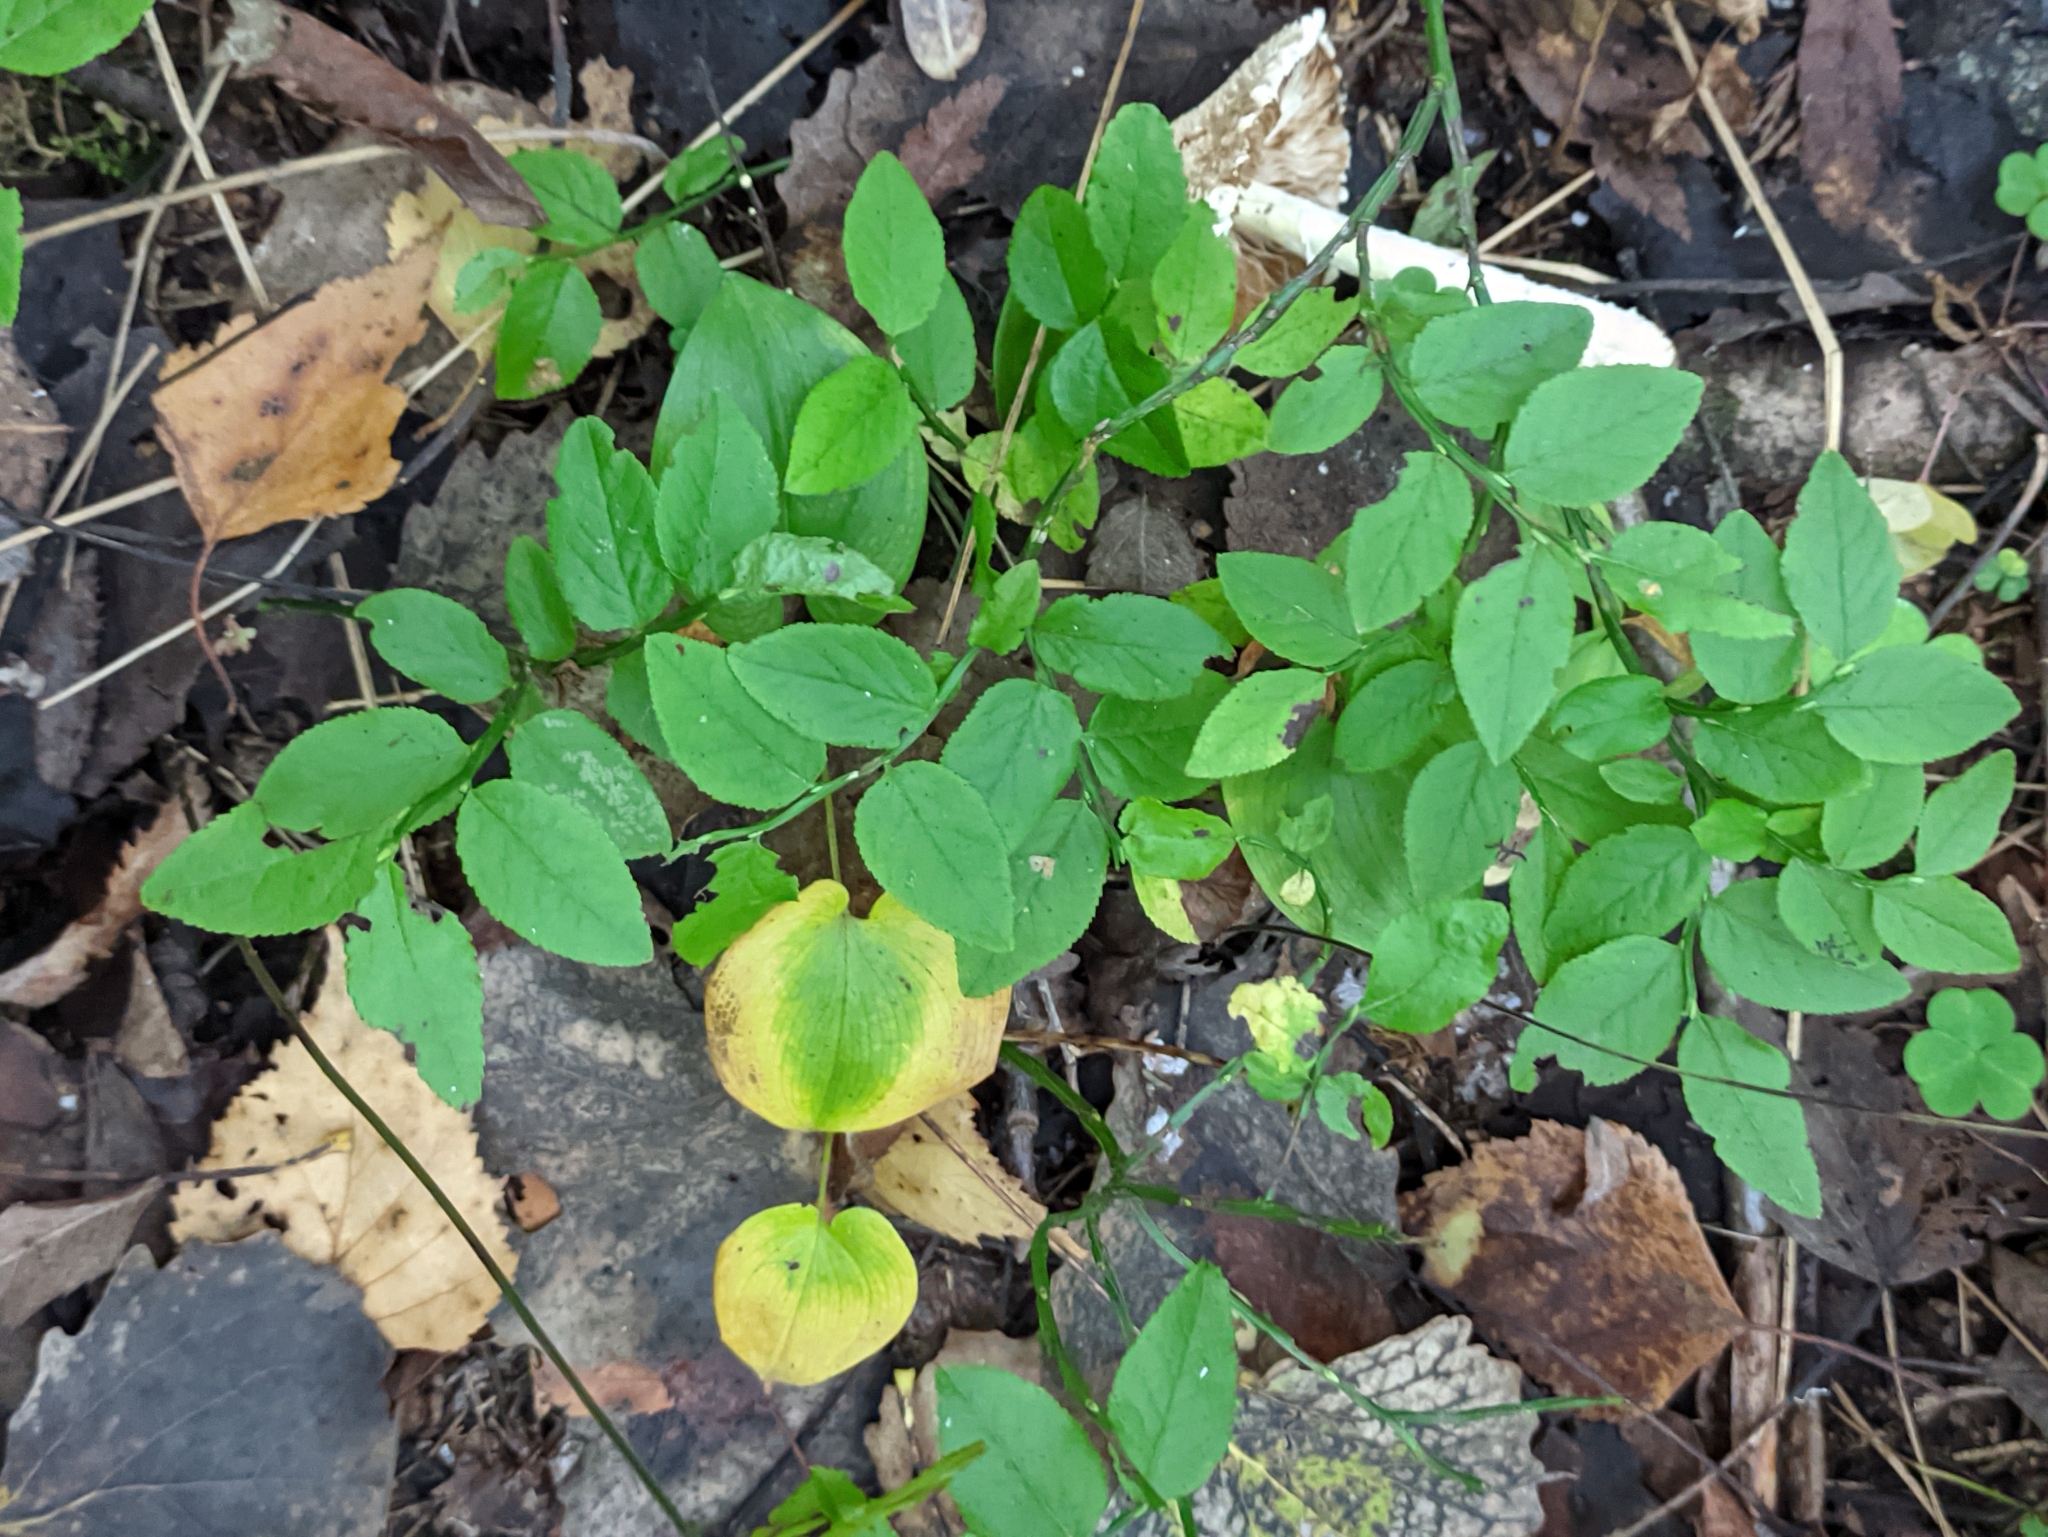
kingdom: Plantae
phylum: Tracheophyta
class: Magnoliopsida
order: Ericales
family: Ericaceae
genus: Vaccinium
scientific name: Vaccinium myrtillus
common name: Bilberry
